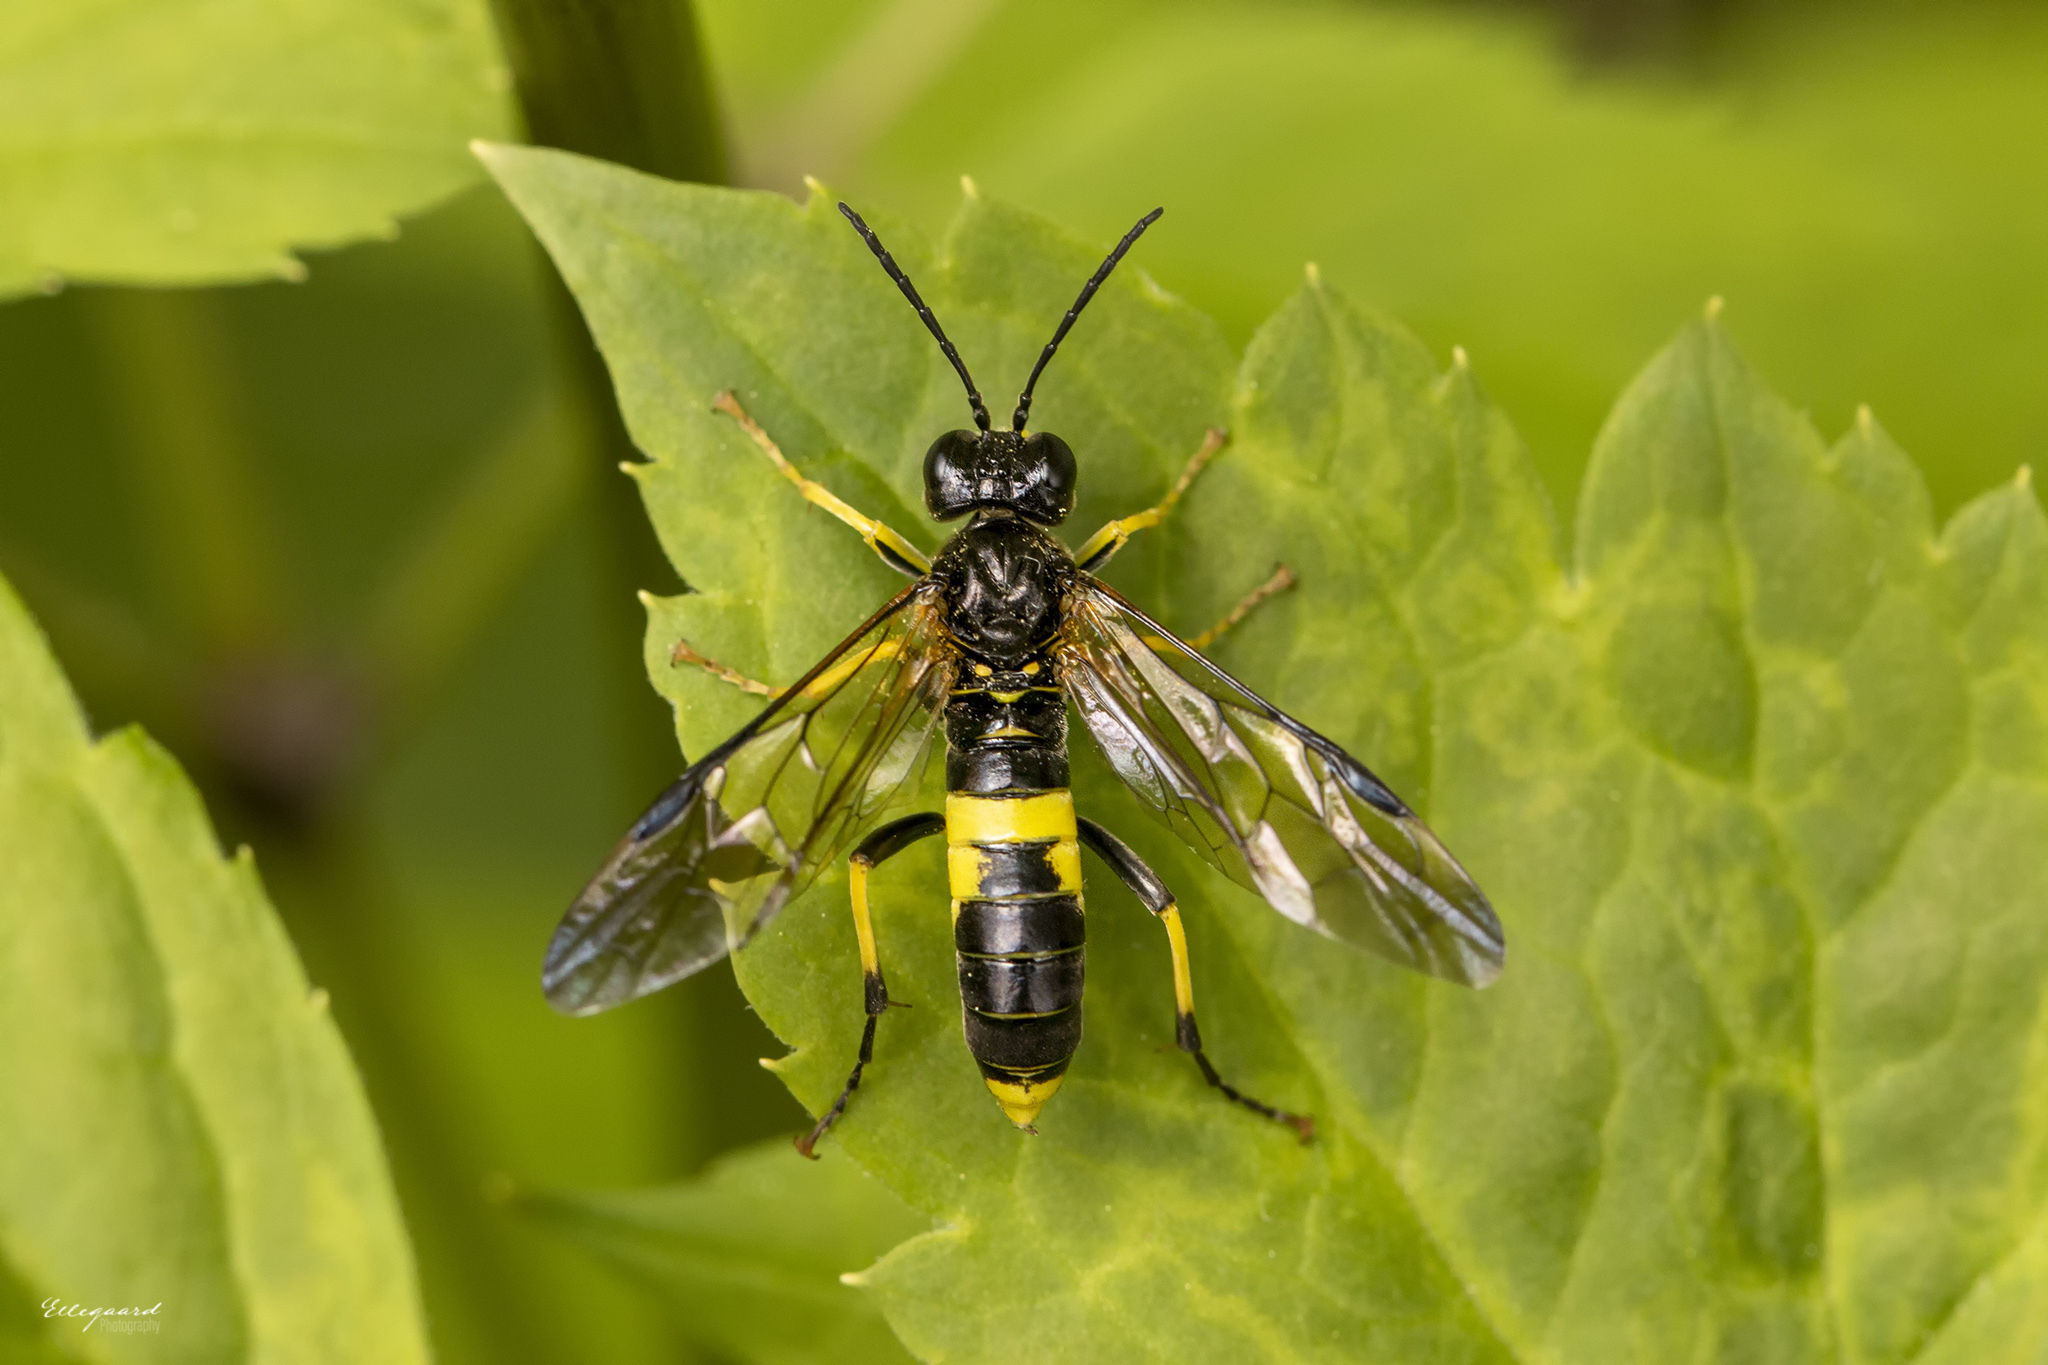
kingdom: Animalia
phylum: Arthropoda
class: Insecta
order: Hymenoptera
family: Tenthredinidae
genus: Tenthredo
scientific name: Tenthredo temula
